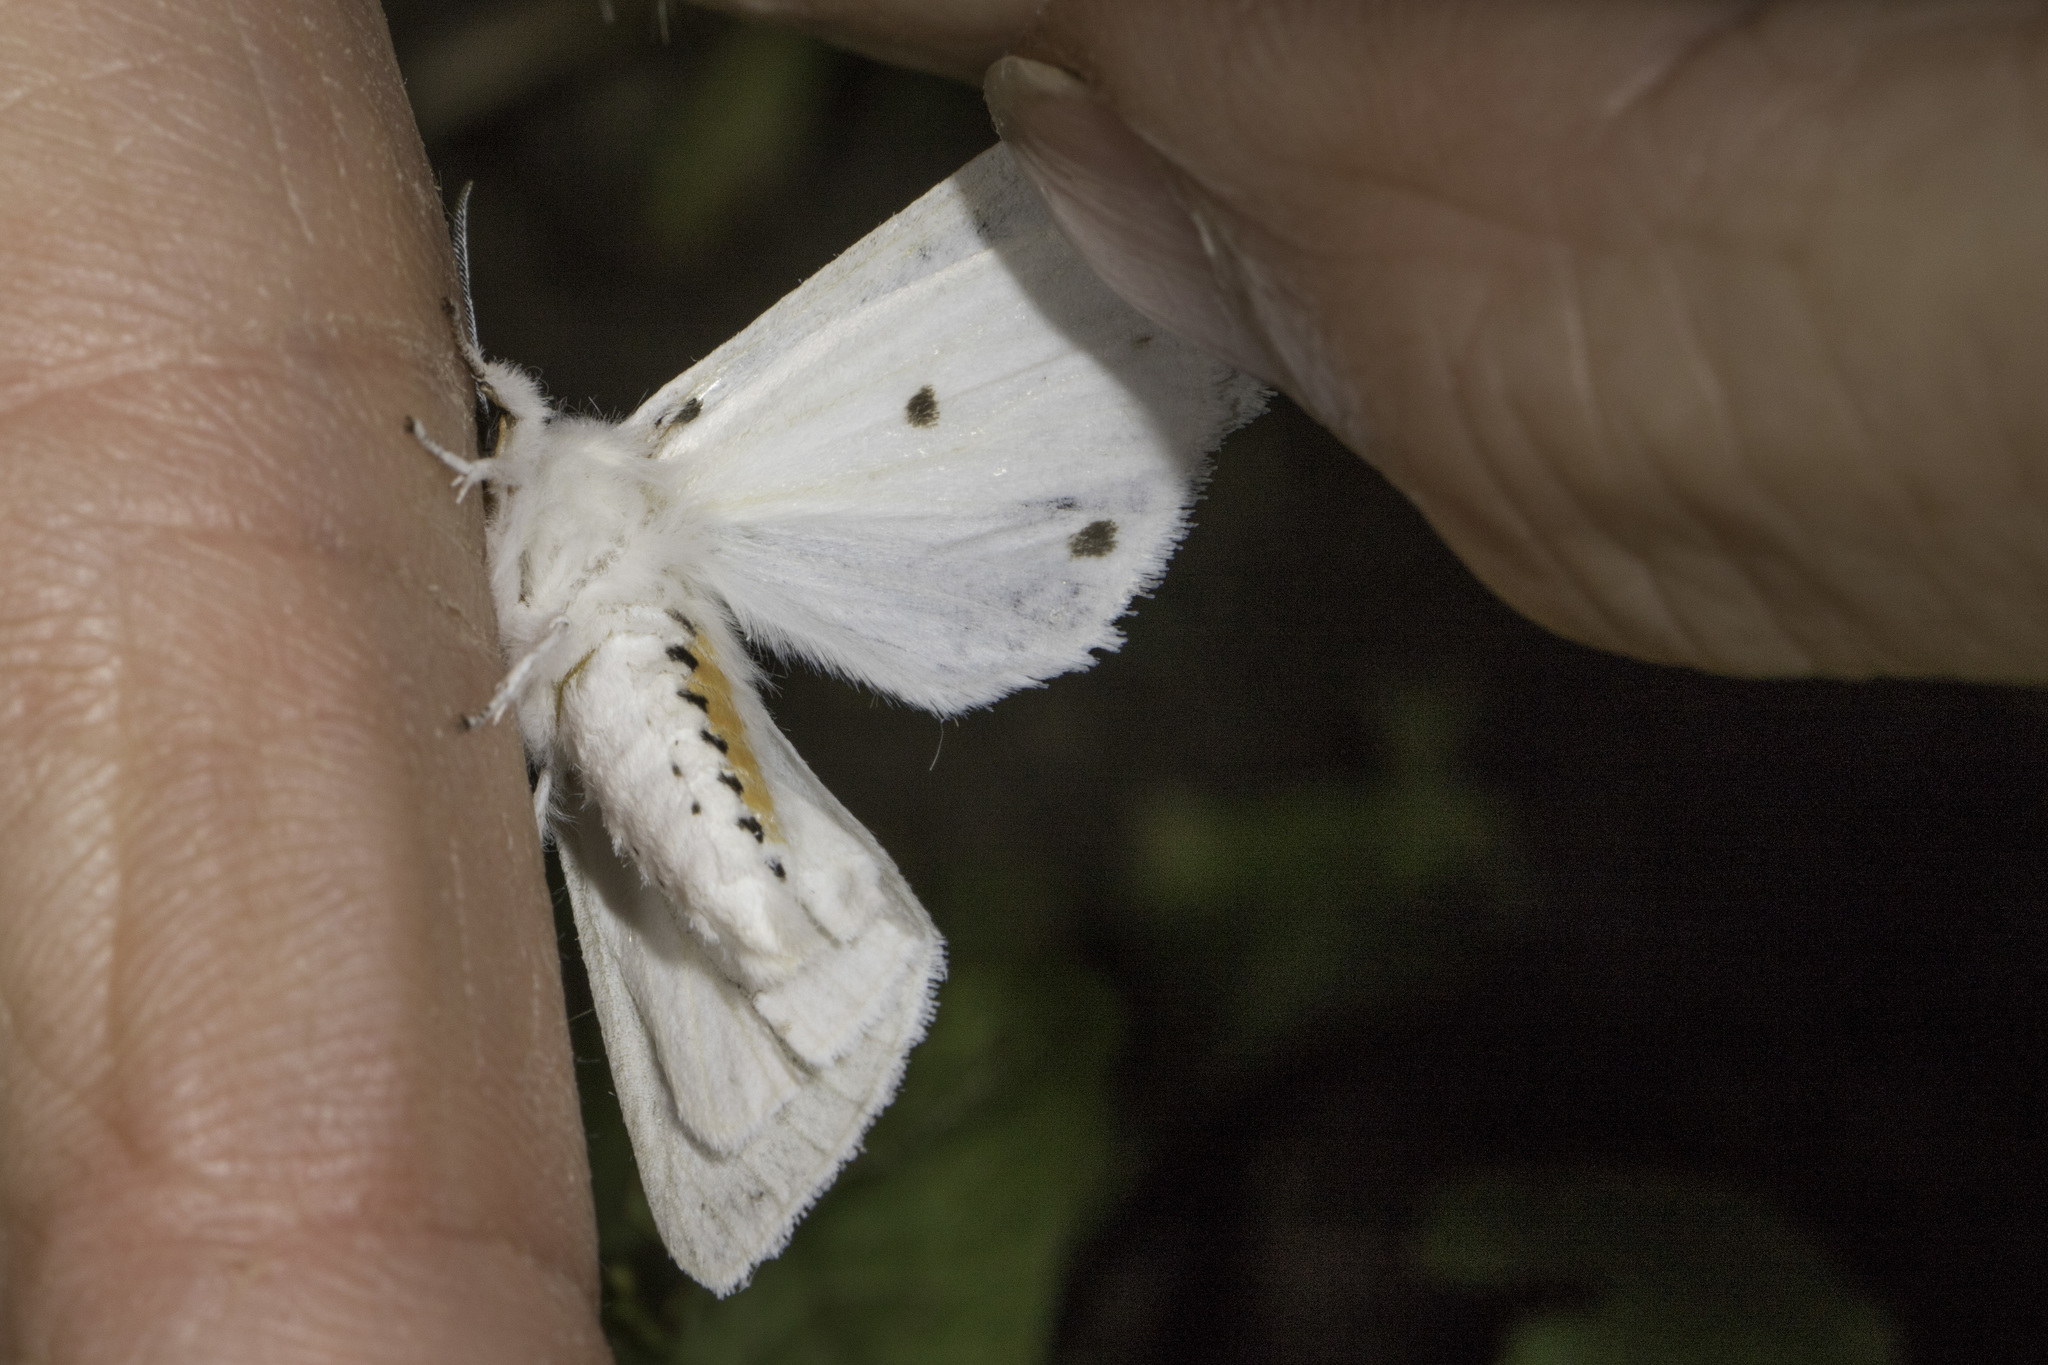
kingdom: Animalia
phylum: Arthropoda
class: Insecta
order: Lepidoptera
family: Erebidae
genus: Spilosoma
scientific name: Spilosoma virginica
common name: Virginia tiger moth
